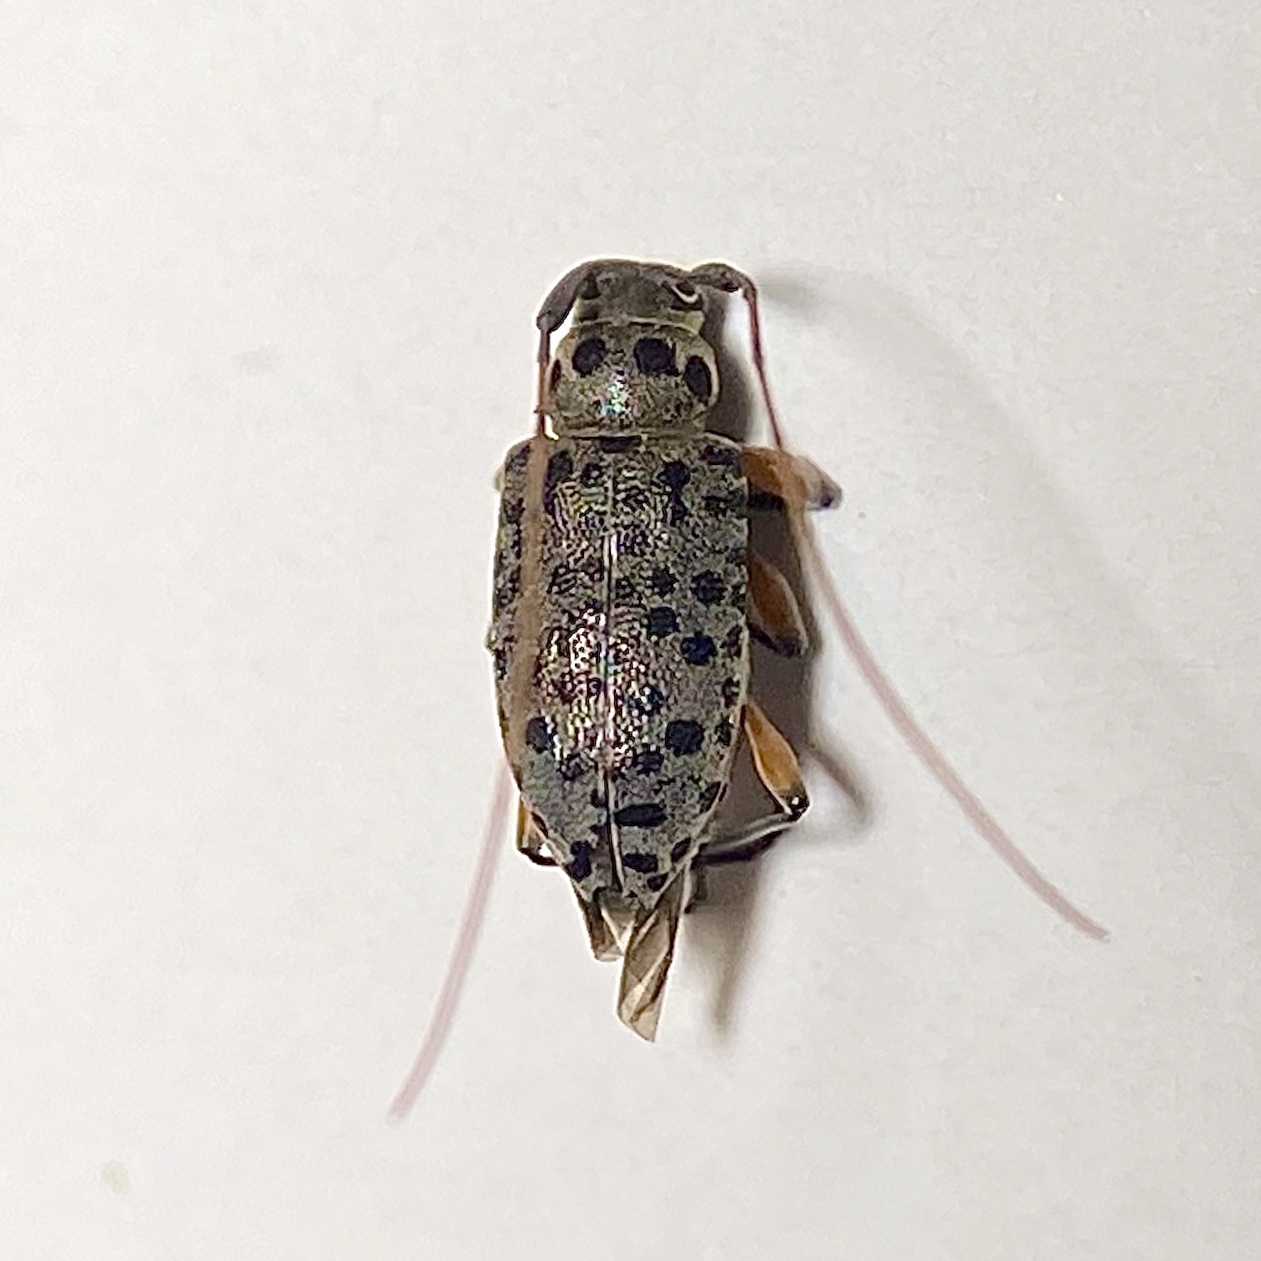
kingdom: Animalia
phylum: Arthropoda
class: Insecta
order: Coleoptera
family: Cerambycidae
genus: Hyperplatys
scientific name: Hyperplatys aspersa
